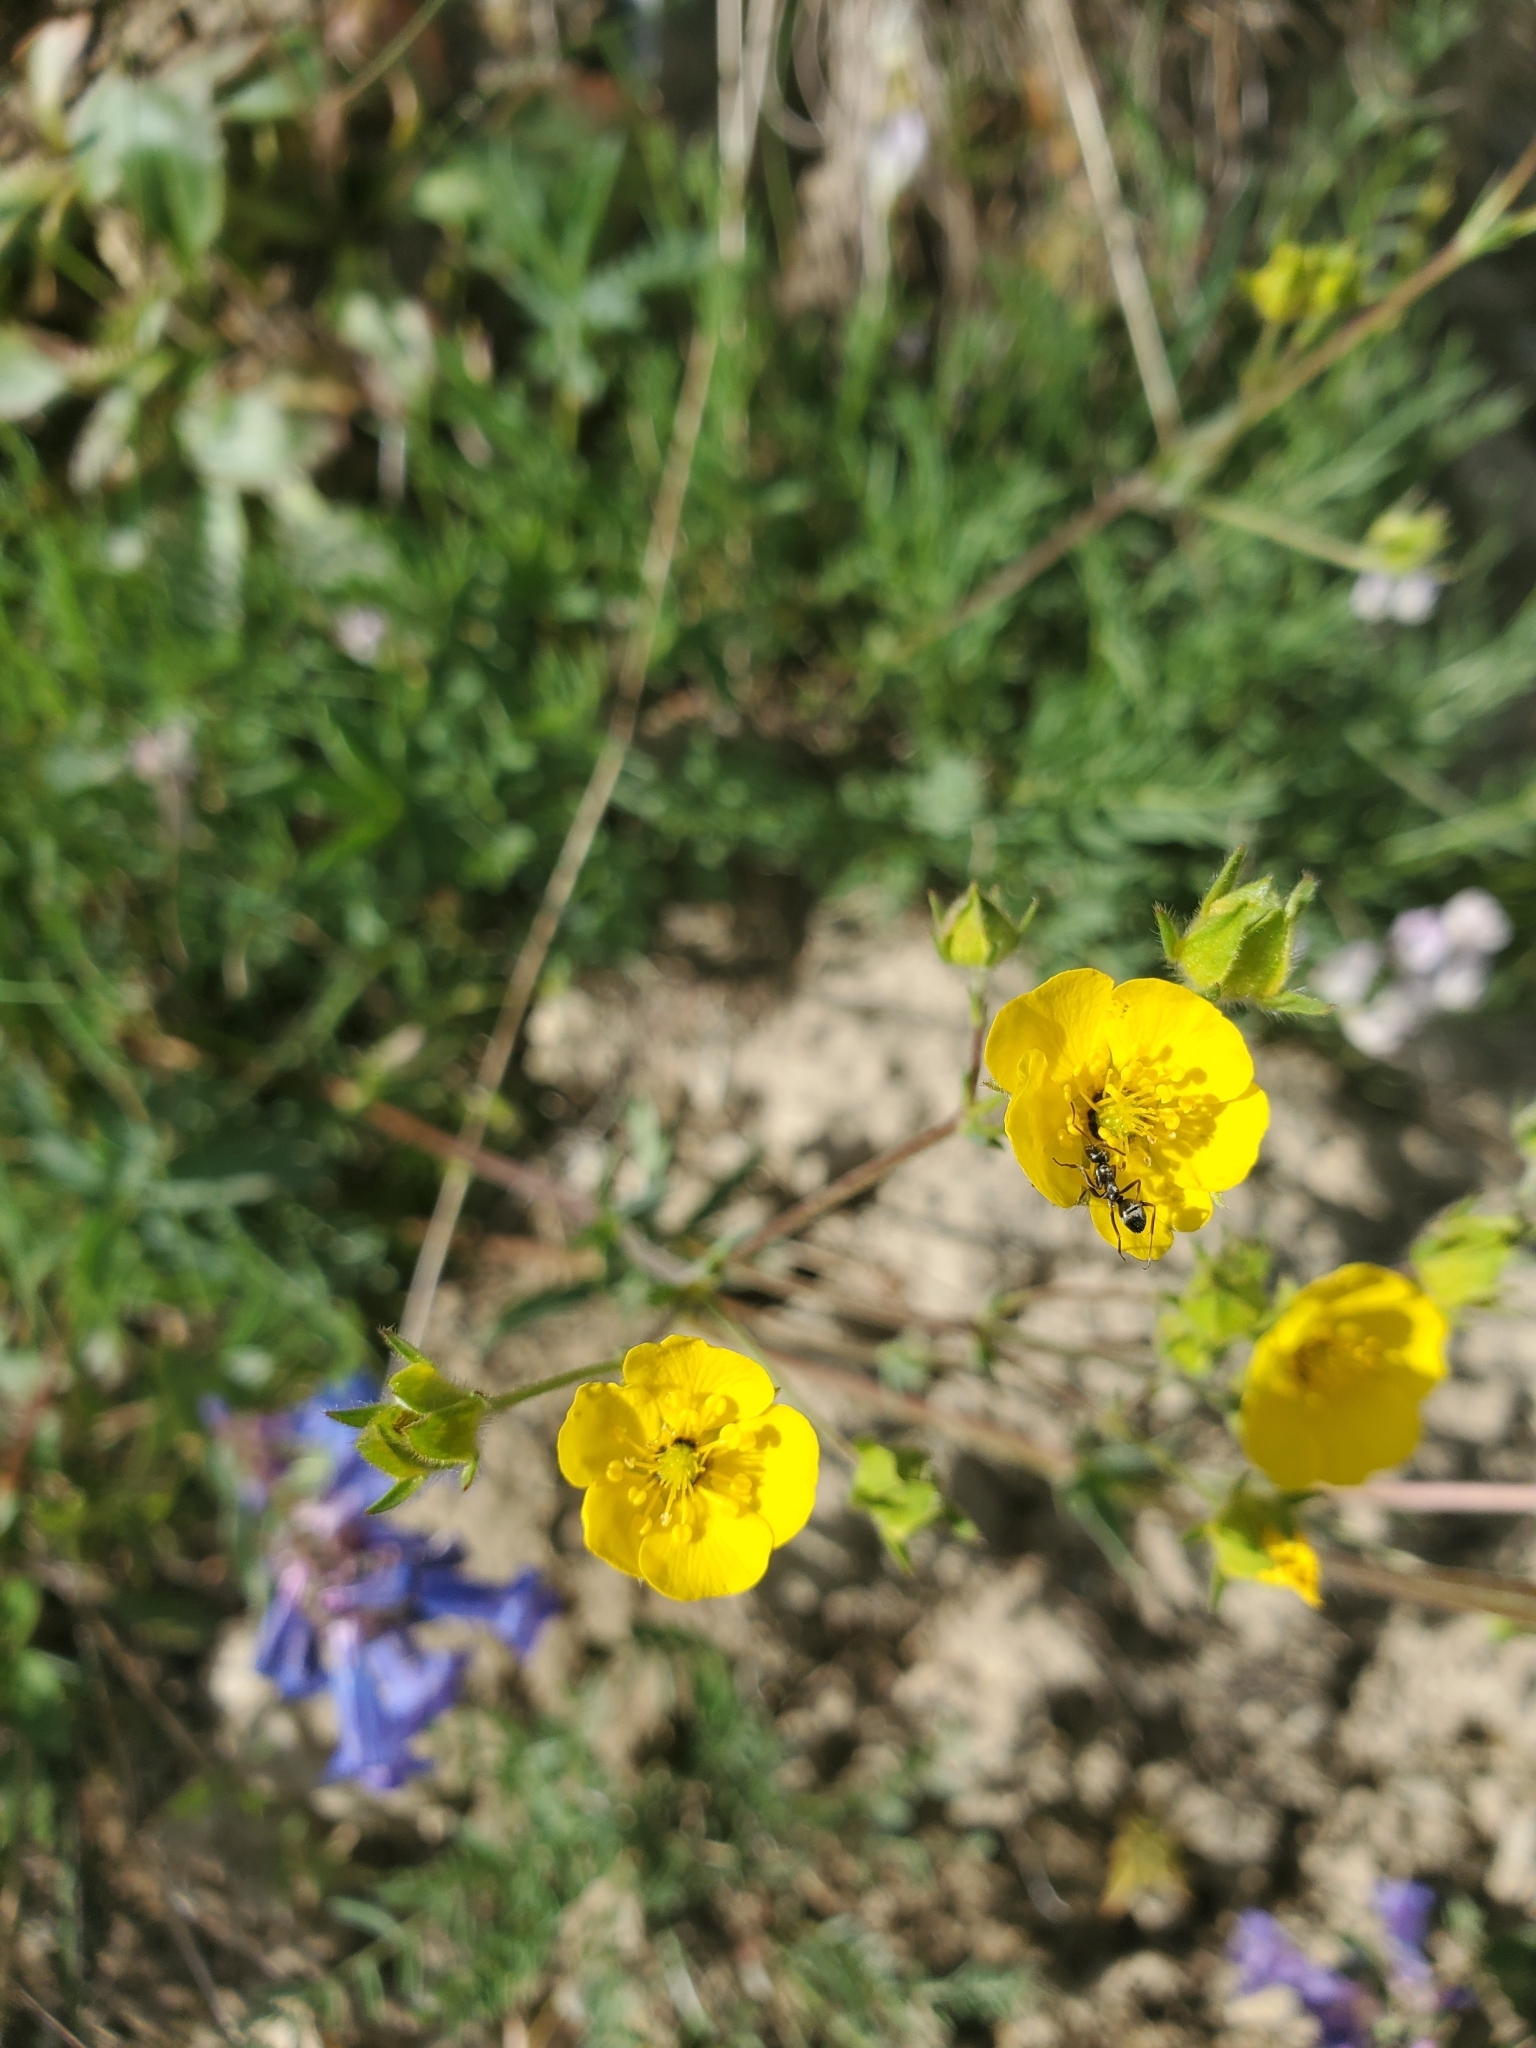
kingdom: Plantae
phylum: Tracheophyta
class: Magnoliopsida
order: Rosales
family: Rosaceae
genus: Potentilla
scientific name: Potentilla glaucophylla
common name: Blue-leaved cinquefoil
